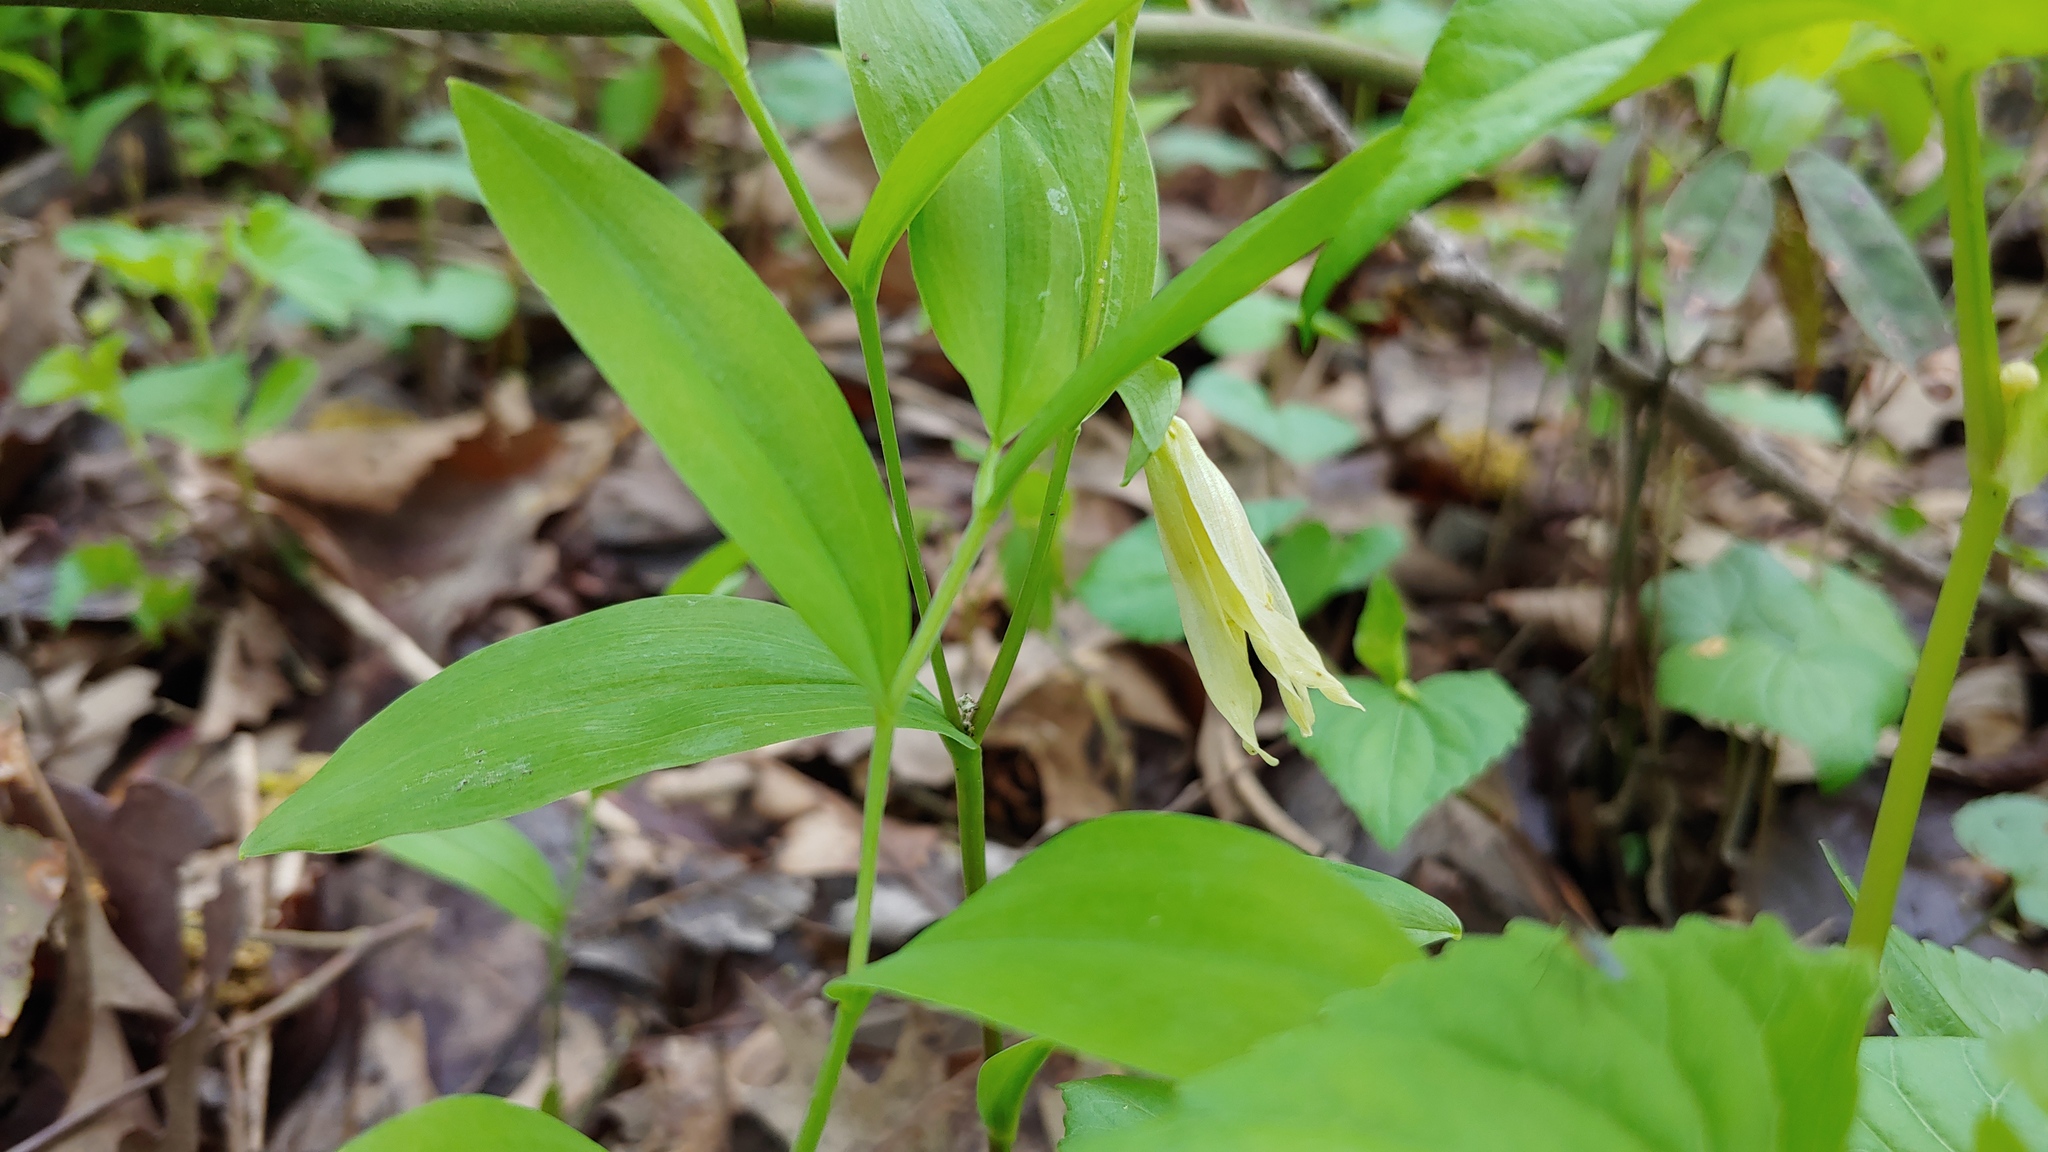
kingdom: Plantae
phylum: Tracheophyta
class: Liliopsida
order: Liliales
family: Colchicaceae
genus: Uvularia
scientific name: Uvularia floridana
